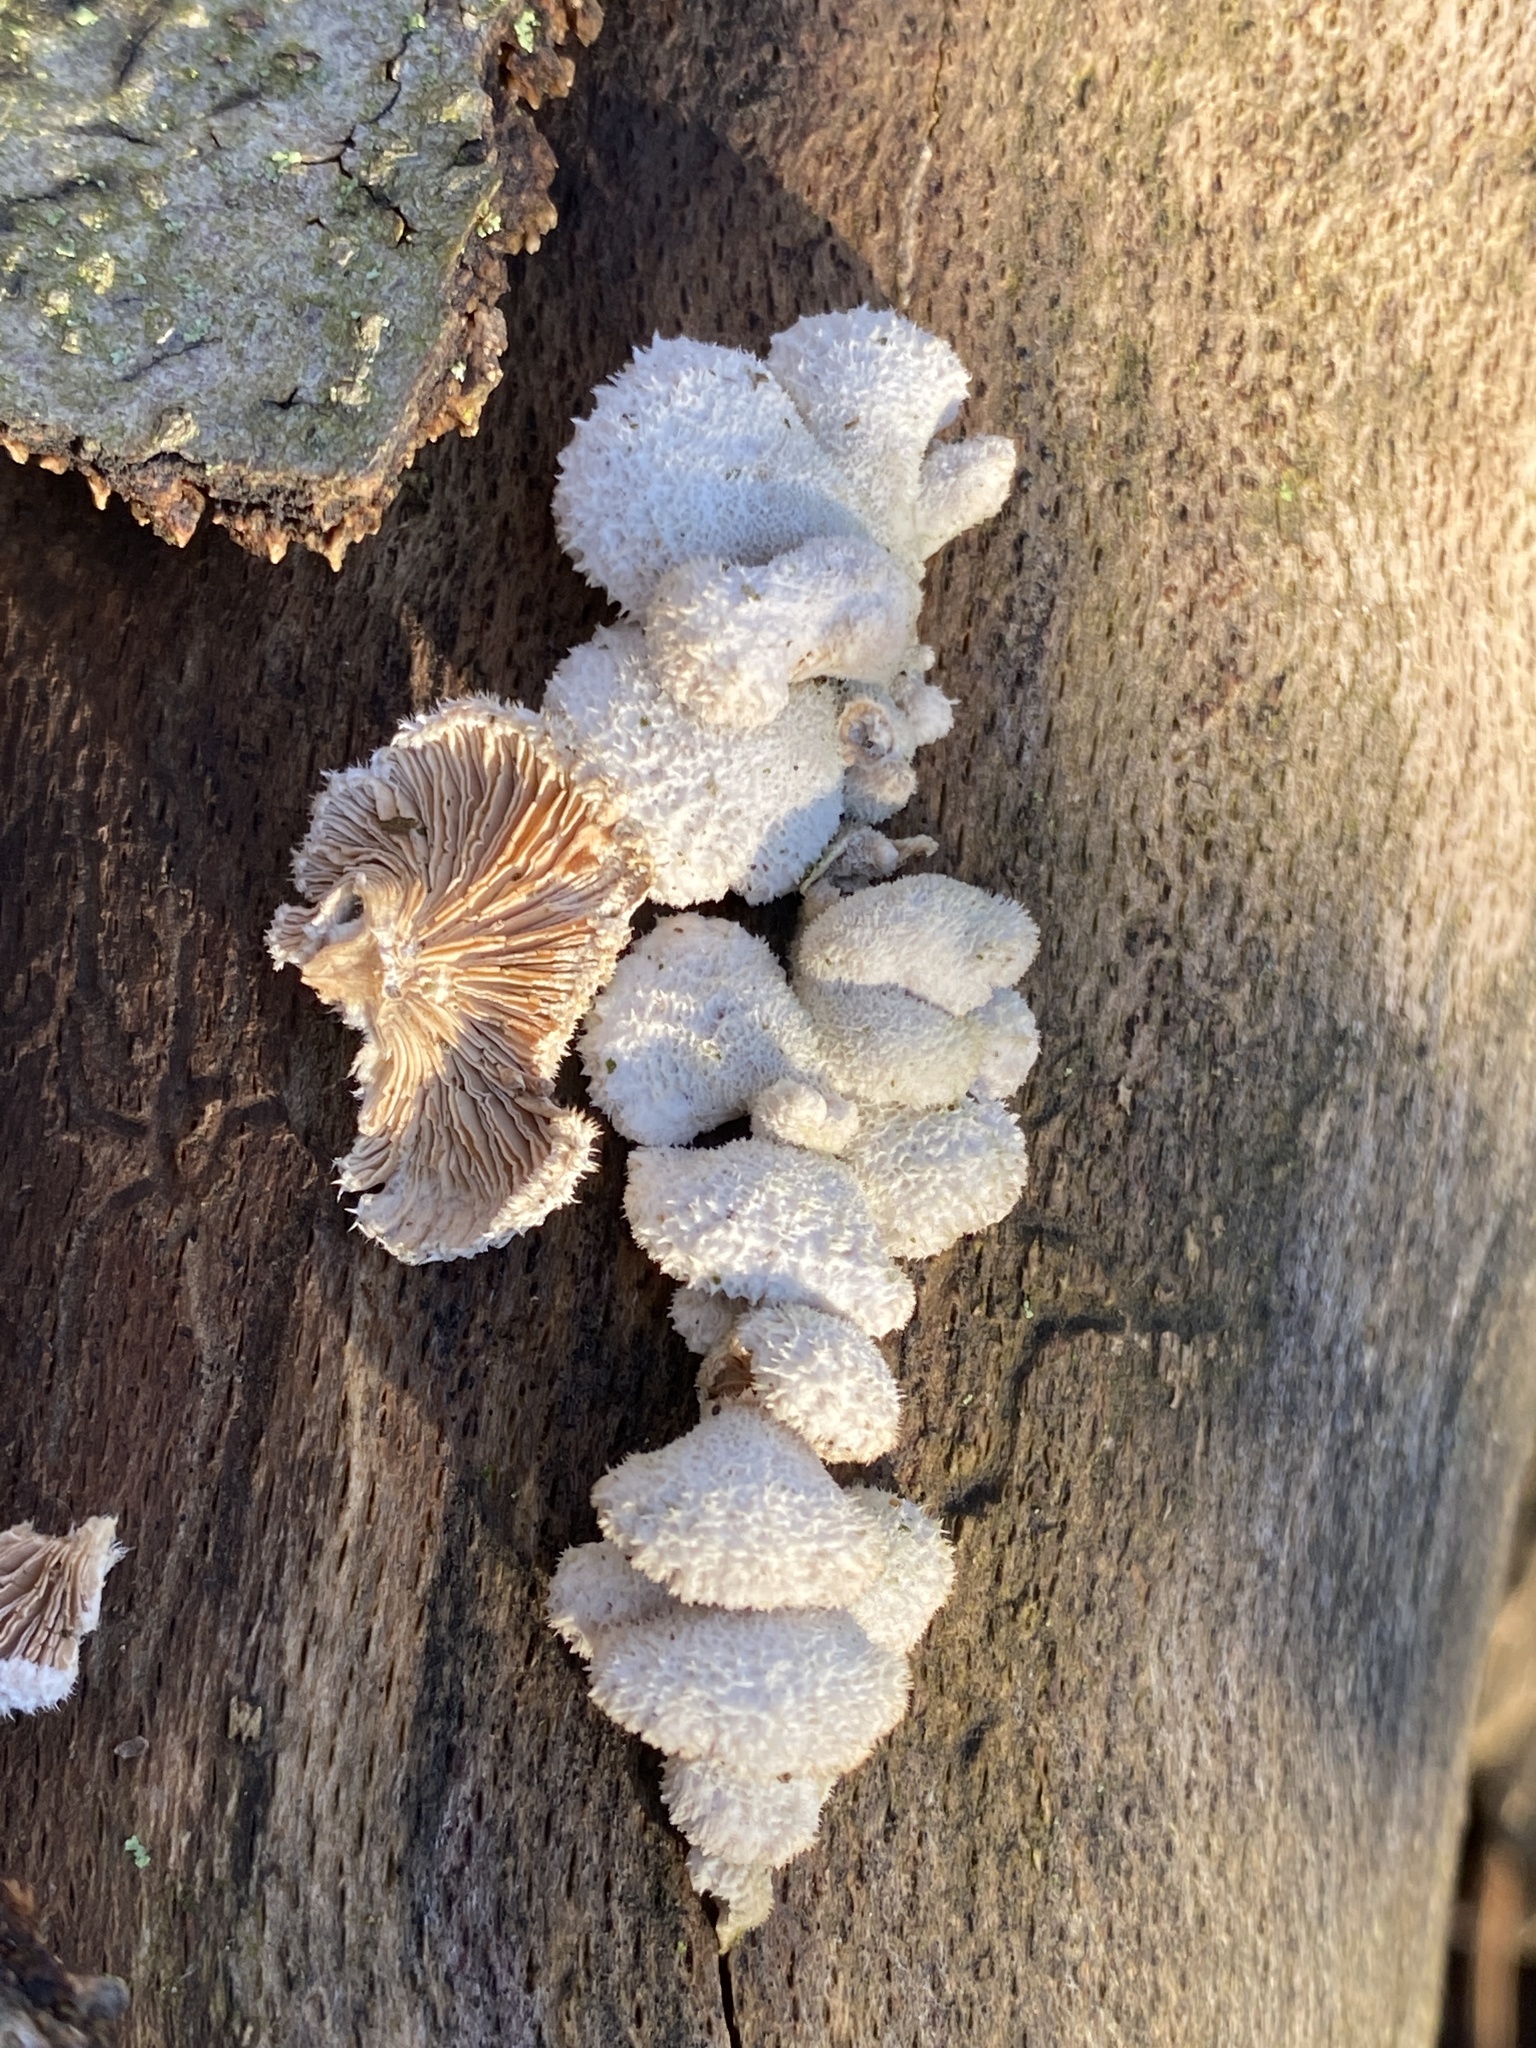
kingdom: Fungi
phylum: Basidiomycota
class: Agaricomycetes
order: Agaricales
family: Schizophyllaceae
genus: Schizophyllum
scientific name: Schizophyllum commune
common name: Common porecrust
